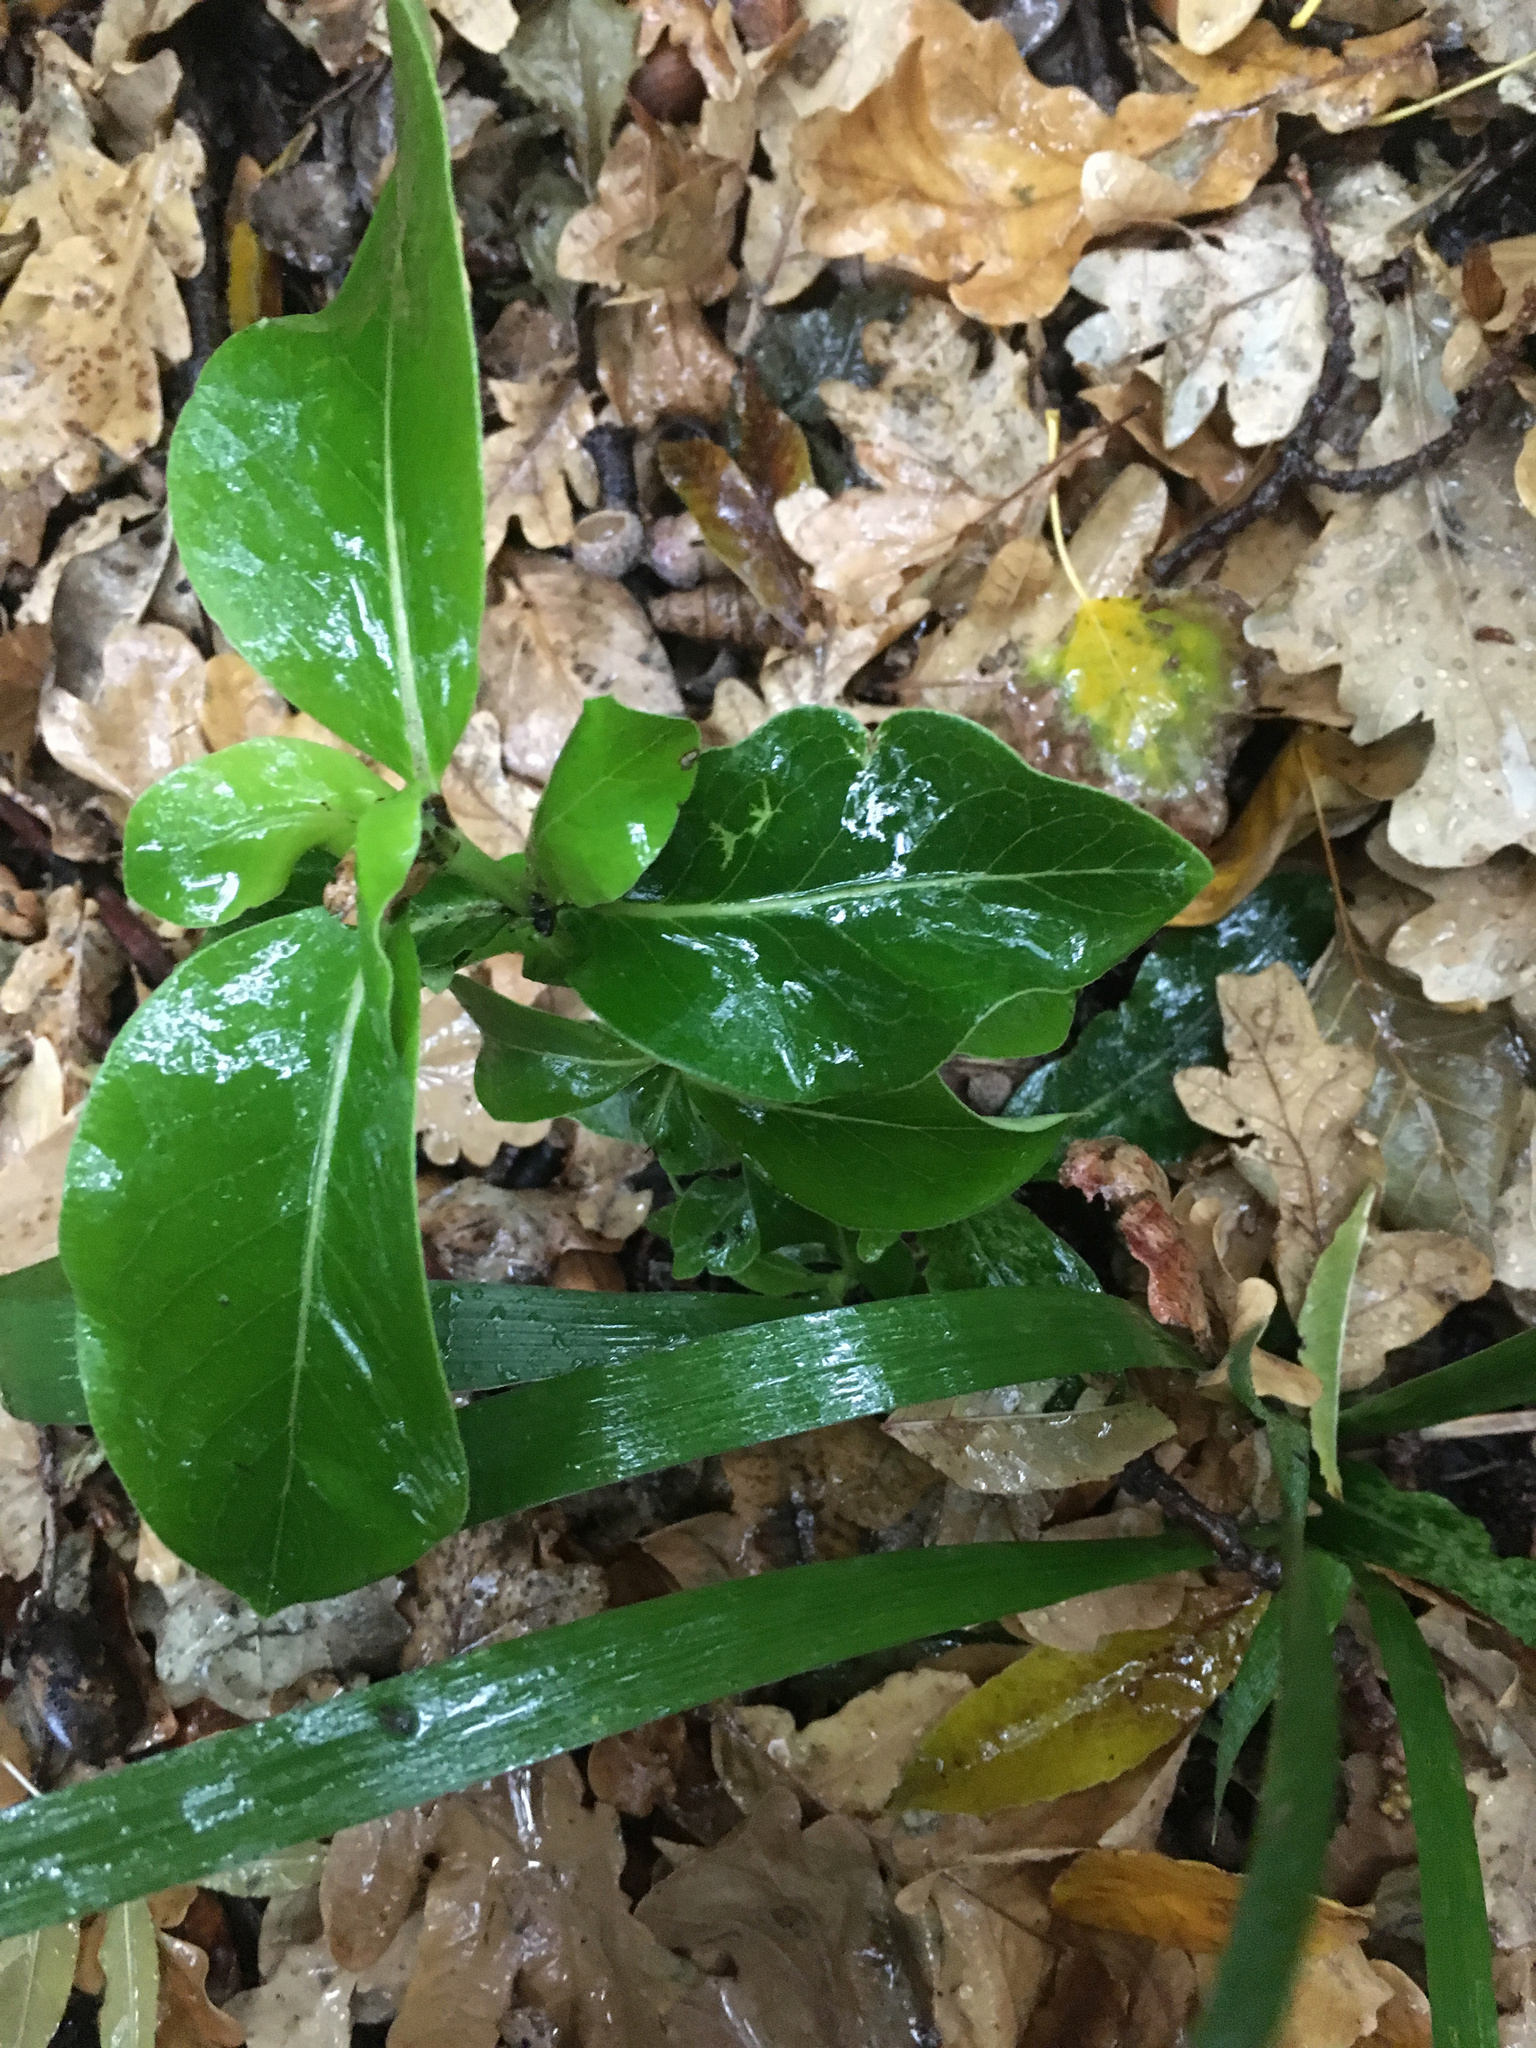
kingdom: Plantae
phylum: Tracheophyta
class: Magnoliopsida
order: Gentianales
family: Rubiaceae
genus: Coprosma
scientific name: Coprosma robusta
